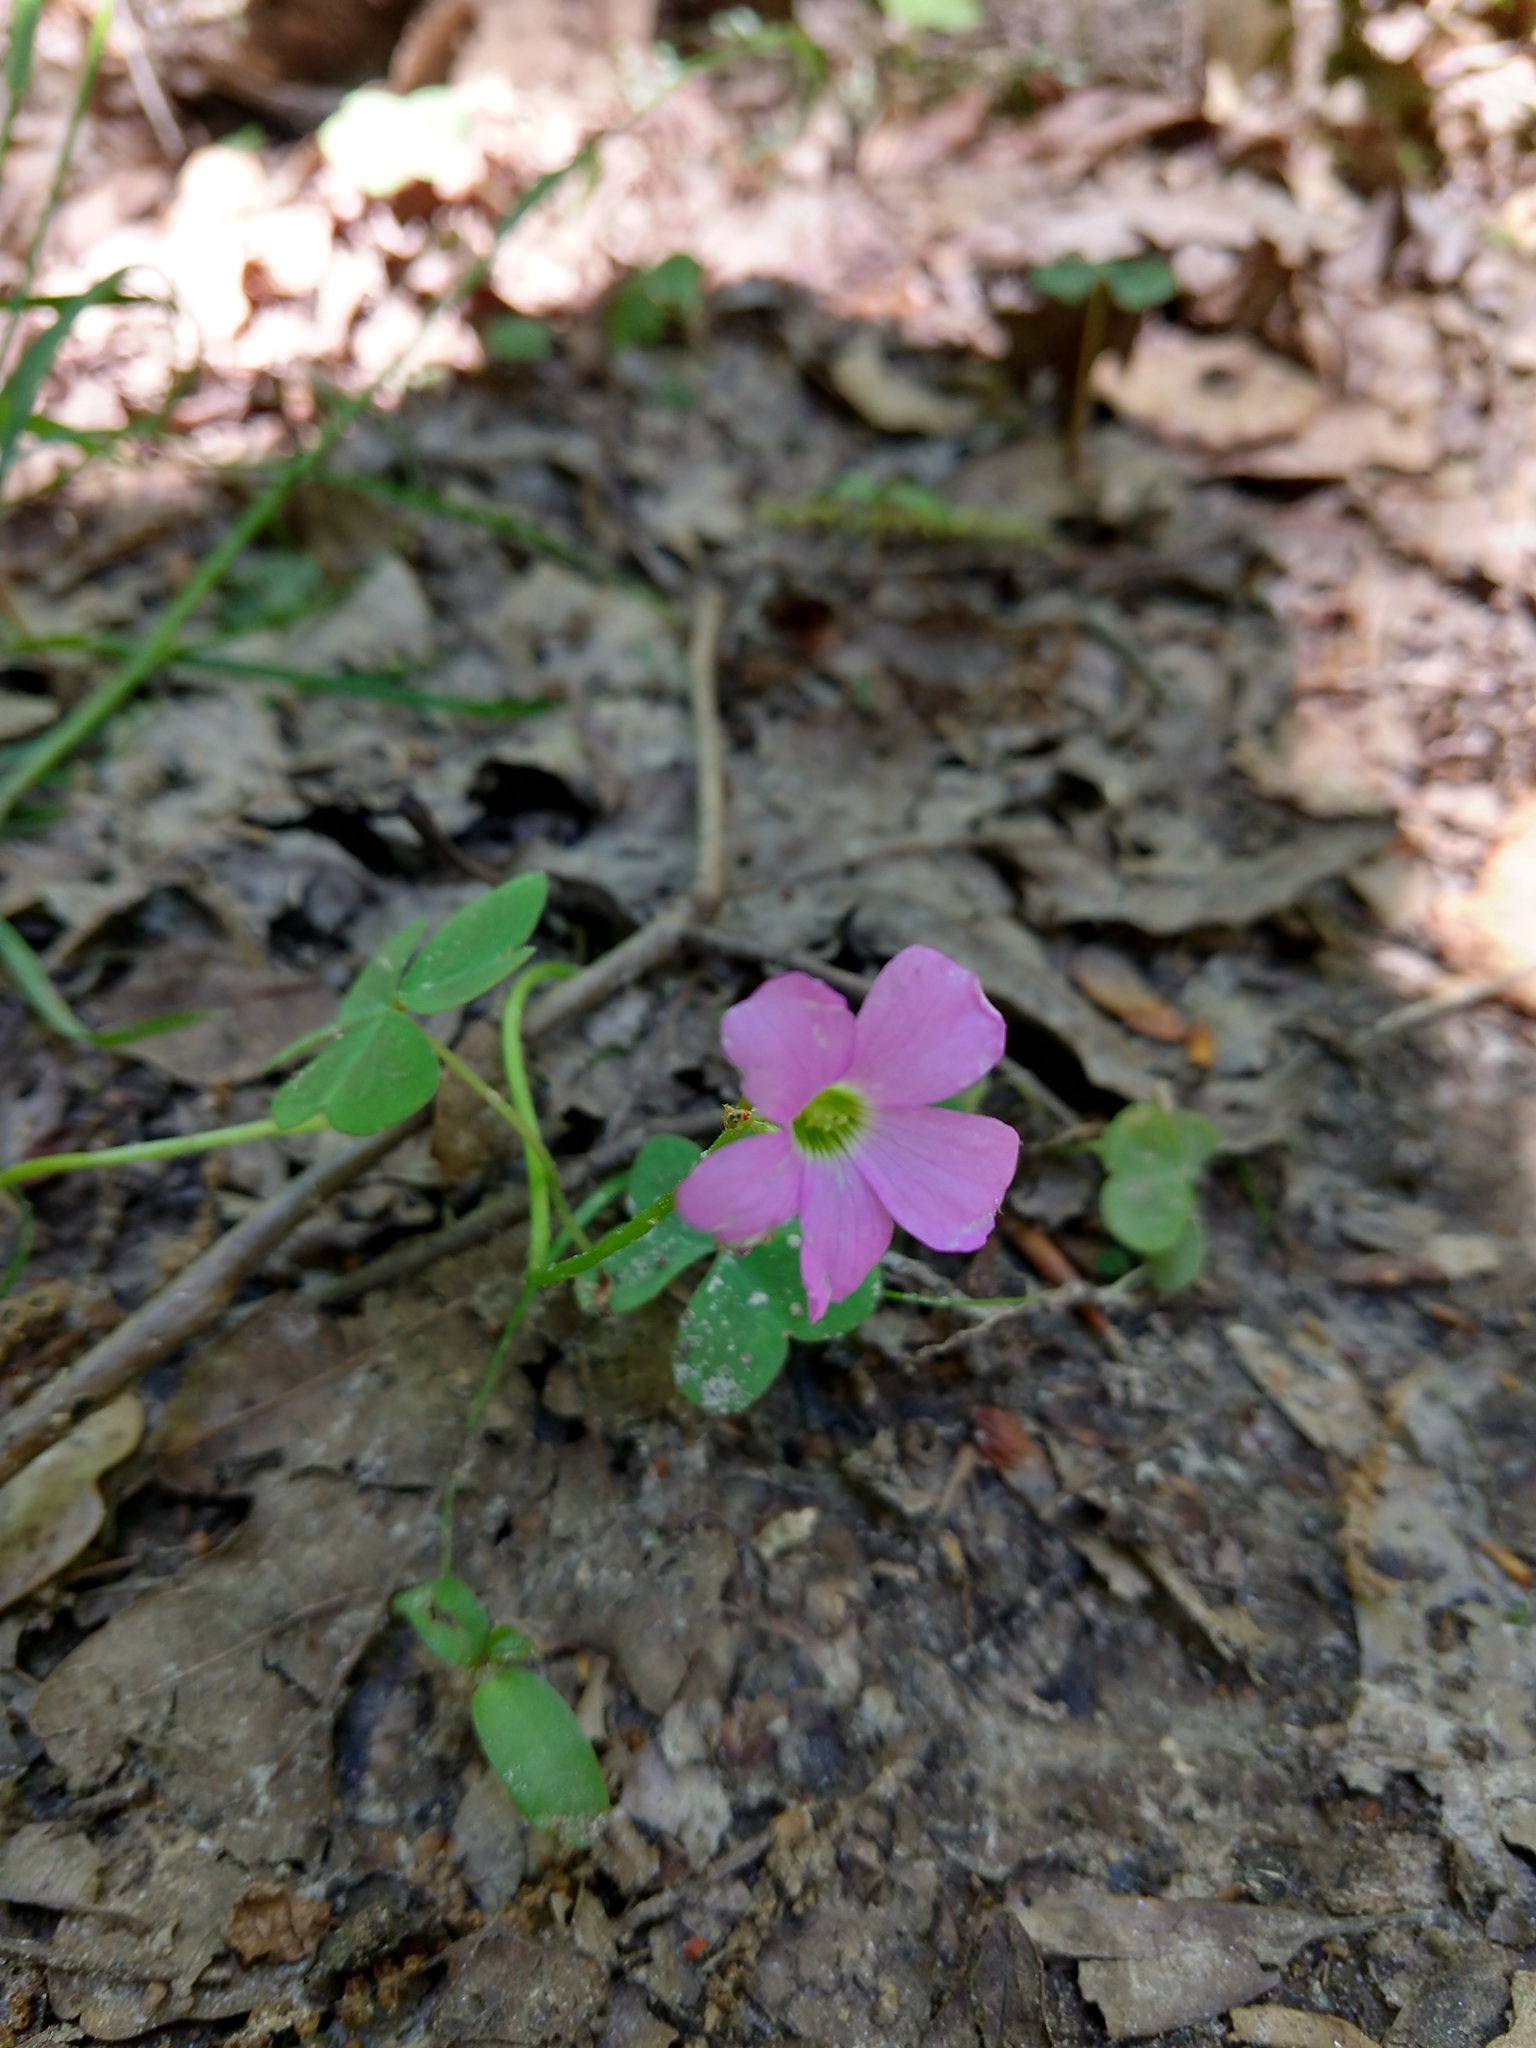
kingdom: Plantae
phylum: Tracheophyta
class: Magnoliopsida
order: Oxalidales
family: Oxalidaceae
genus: Oxalis
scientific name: Oxalis violacea
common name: Violet wood-sorrel
